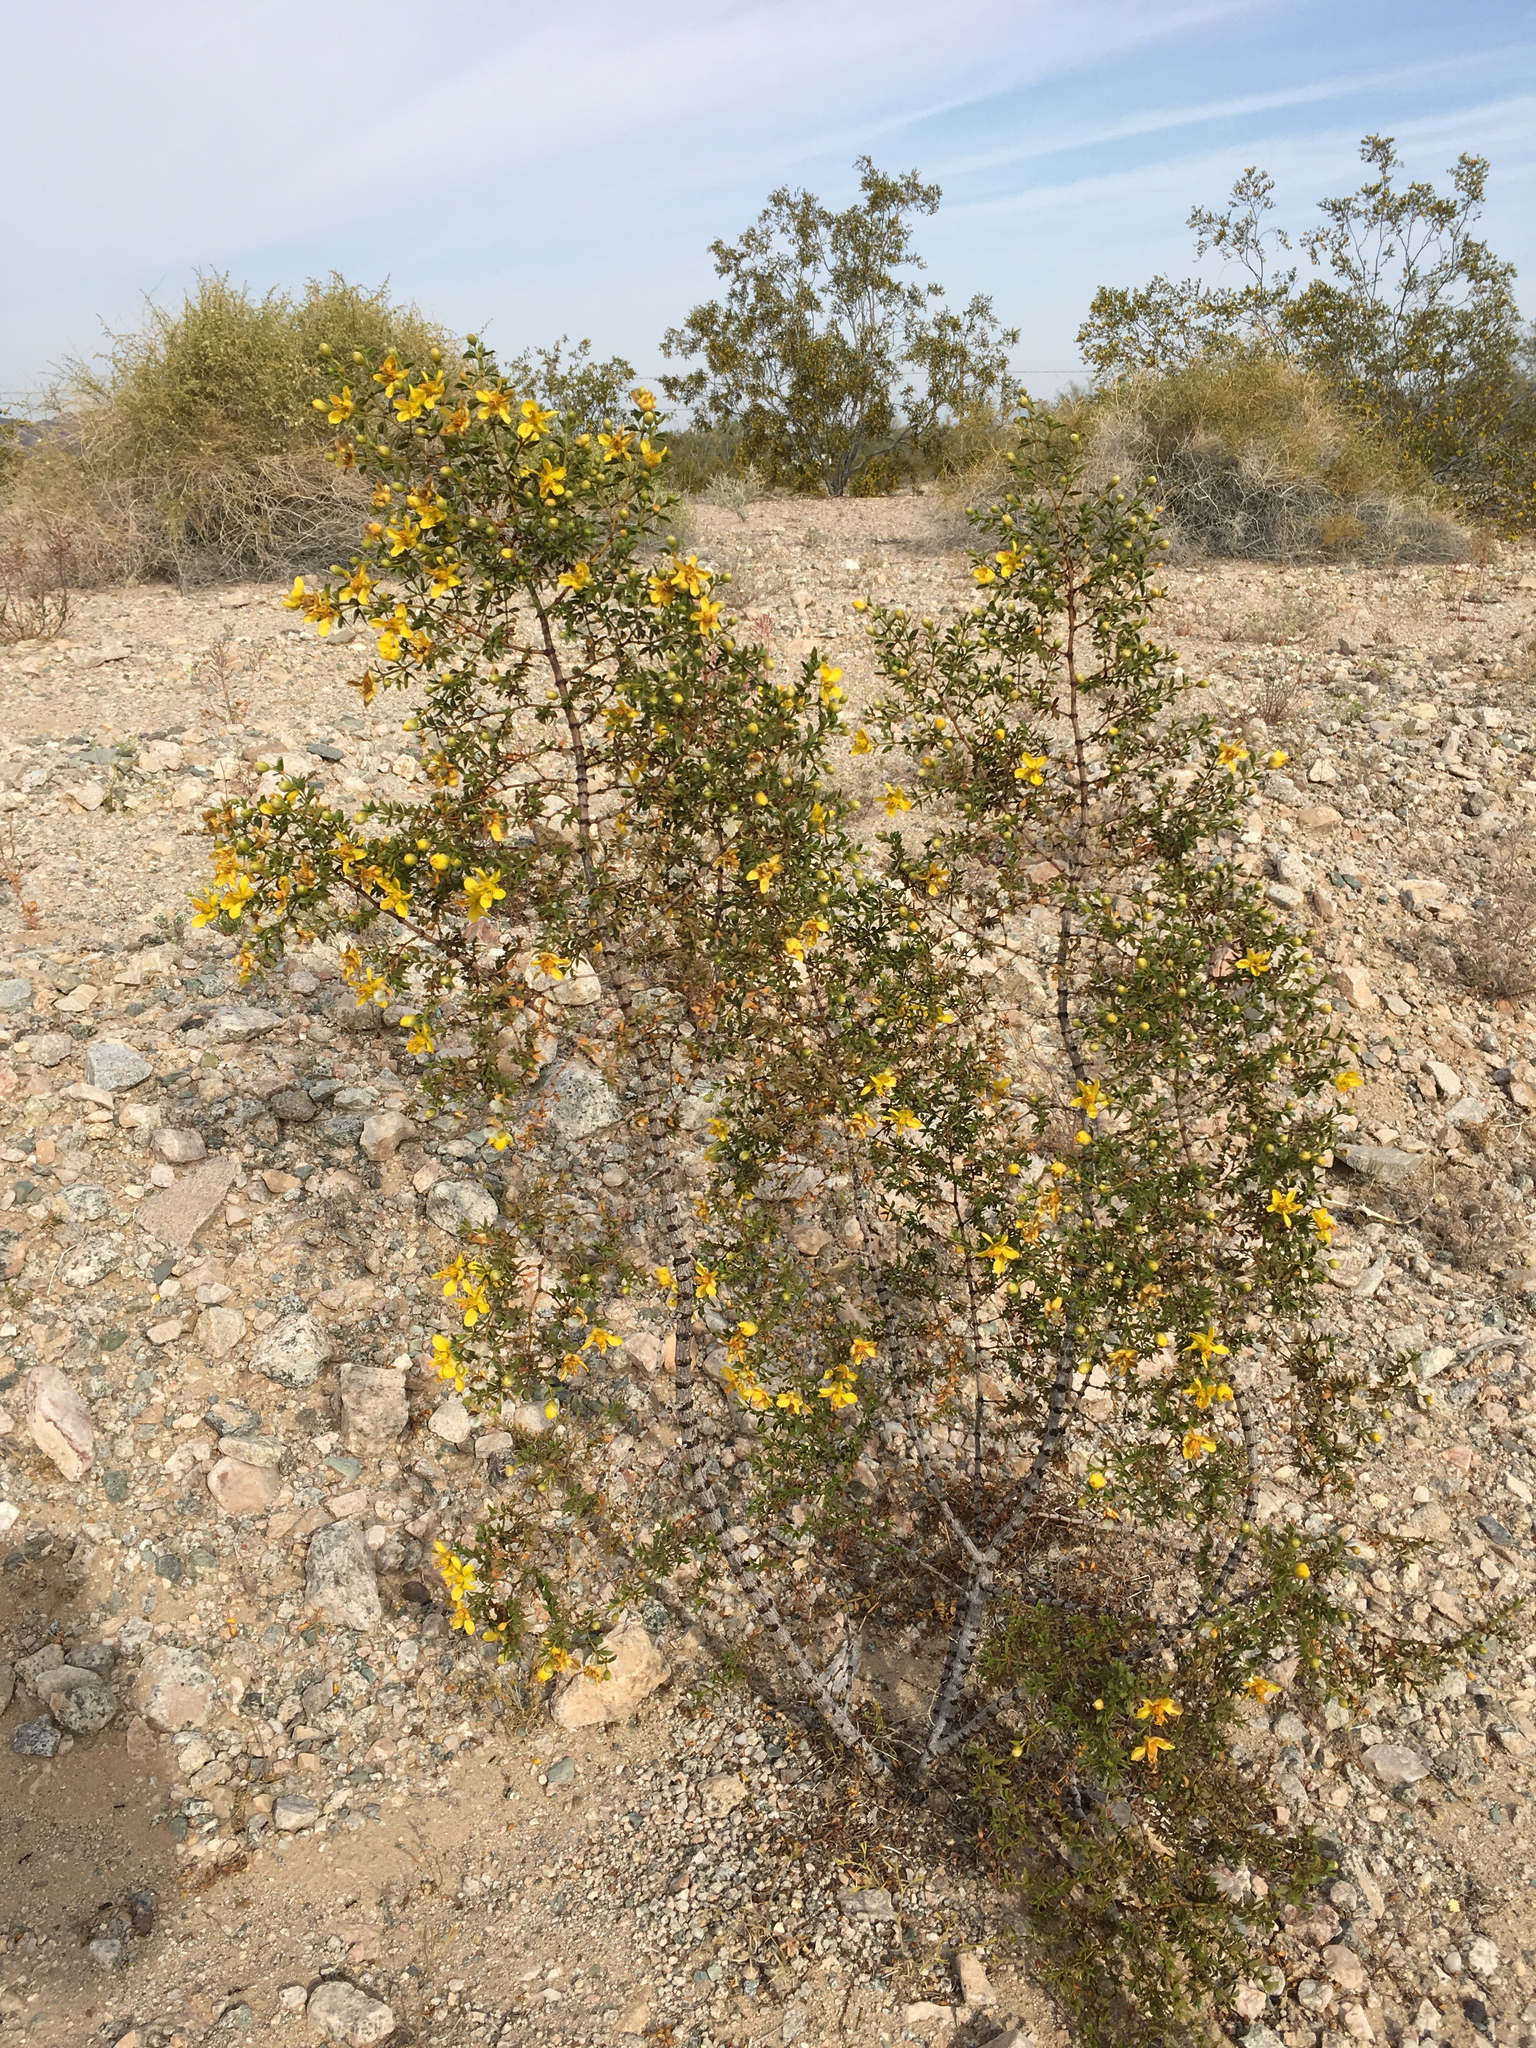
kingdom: Plantae
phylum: Tracheophyta
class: Magnoliopsida
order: Zygophyllales
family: Zygophyllaceae
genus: Larrea
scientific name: Larrea tridentata
